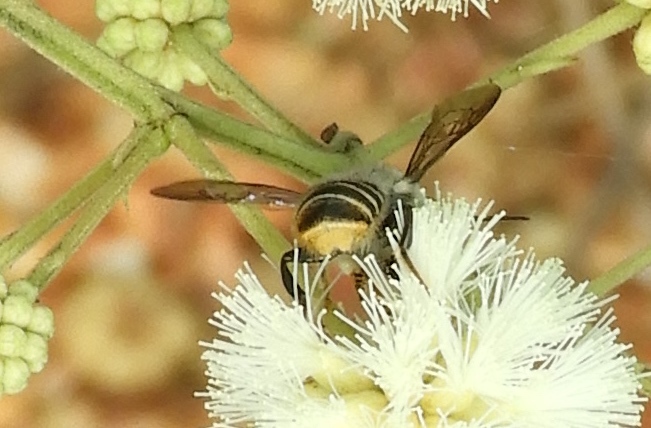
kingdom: Animalia
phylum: Arthropoda
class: Insecta
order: Hymenoptera
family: Vespidae
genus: Brachygastra
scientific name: Brachygastra mellifica
